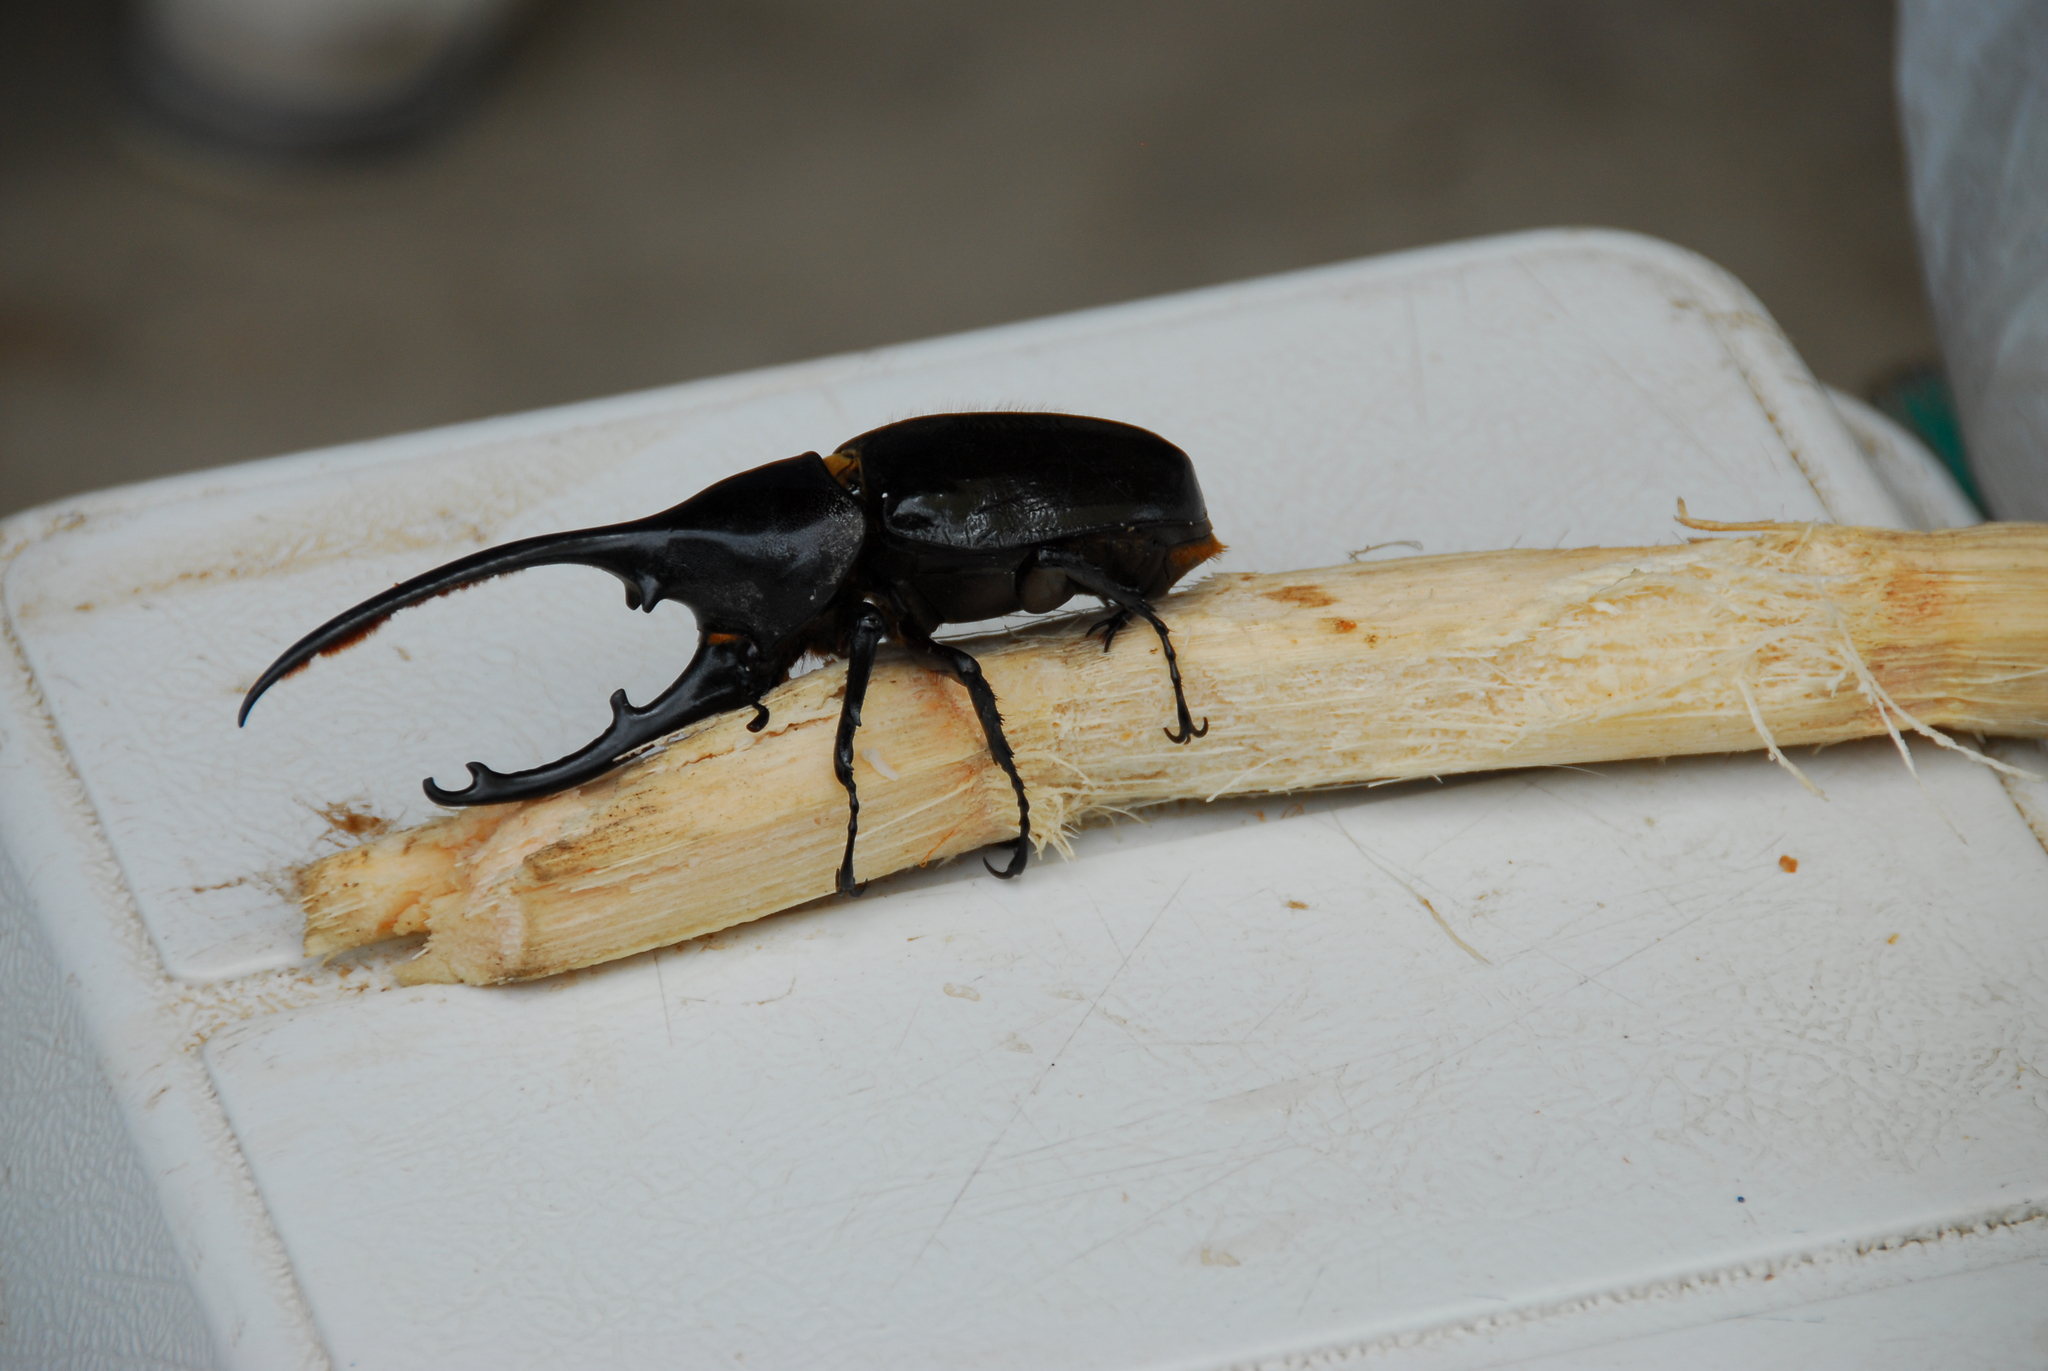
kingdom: Animalia
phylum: Arthropoda
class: Insecta
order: Coleoptera
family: Scarabaeidae
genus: Dynastes
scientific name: Dynastes
